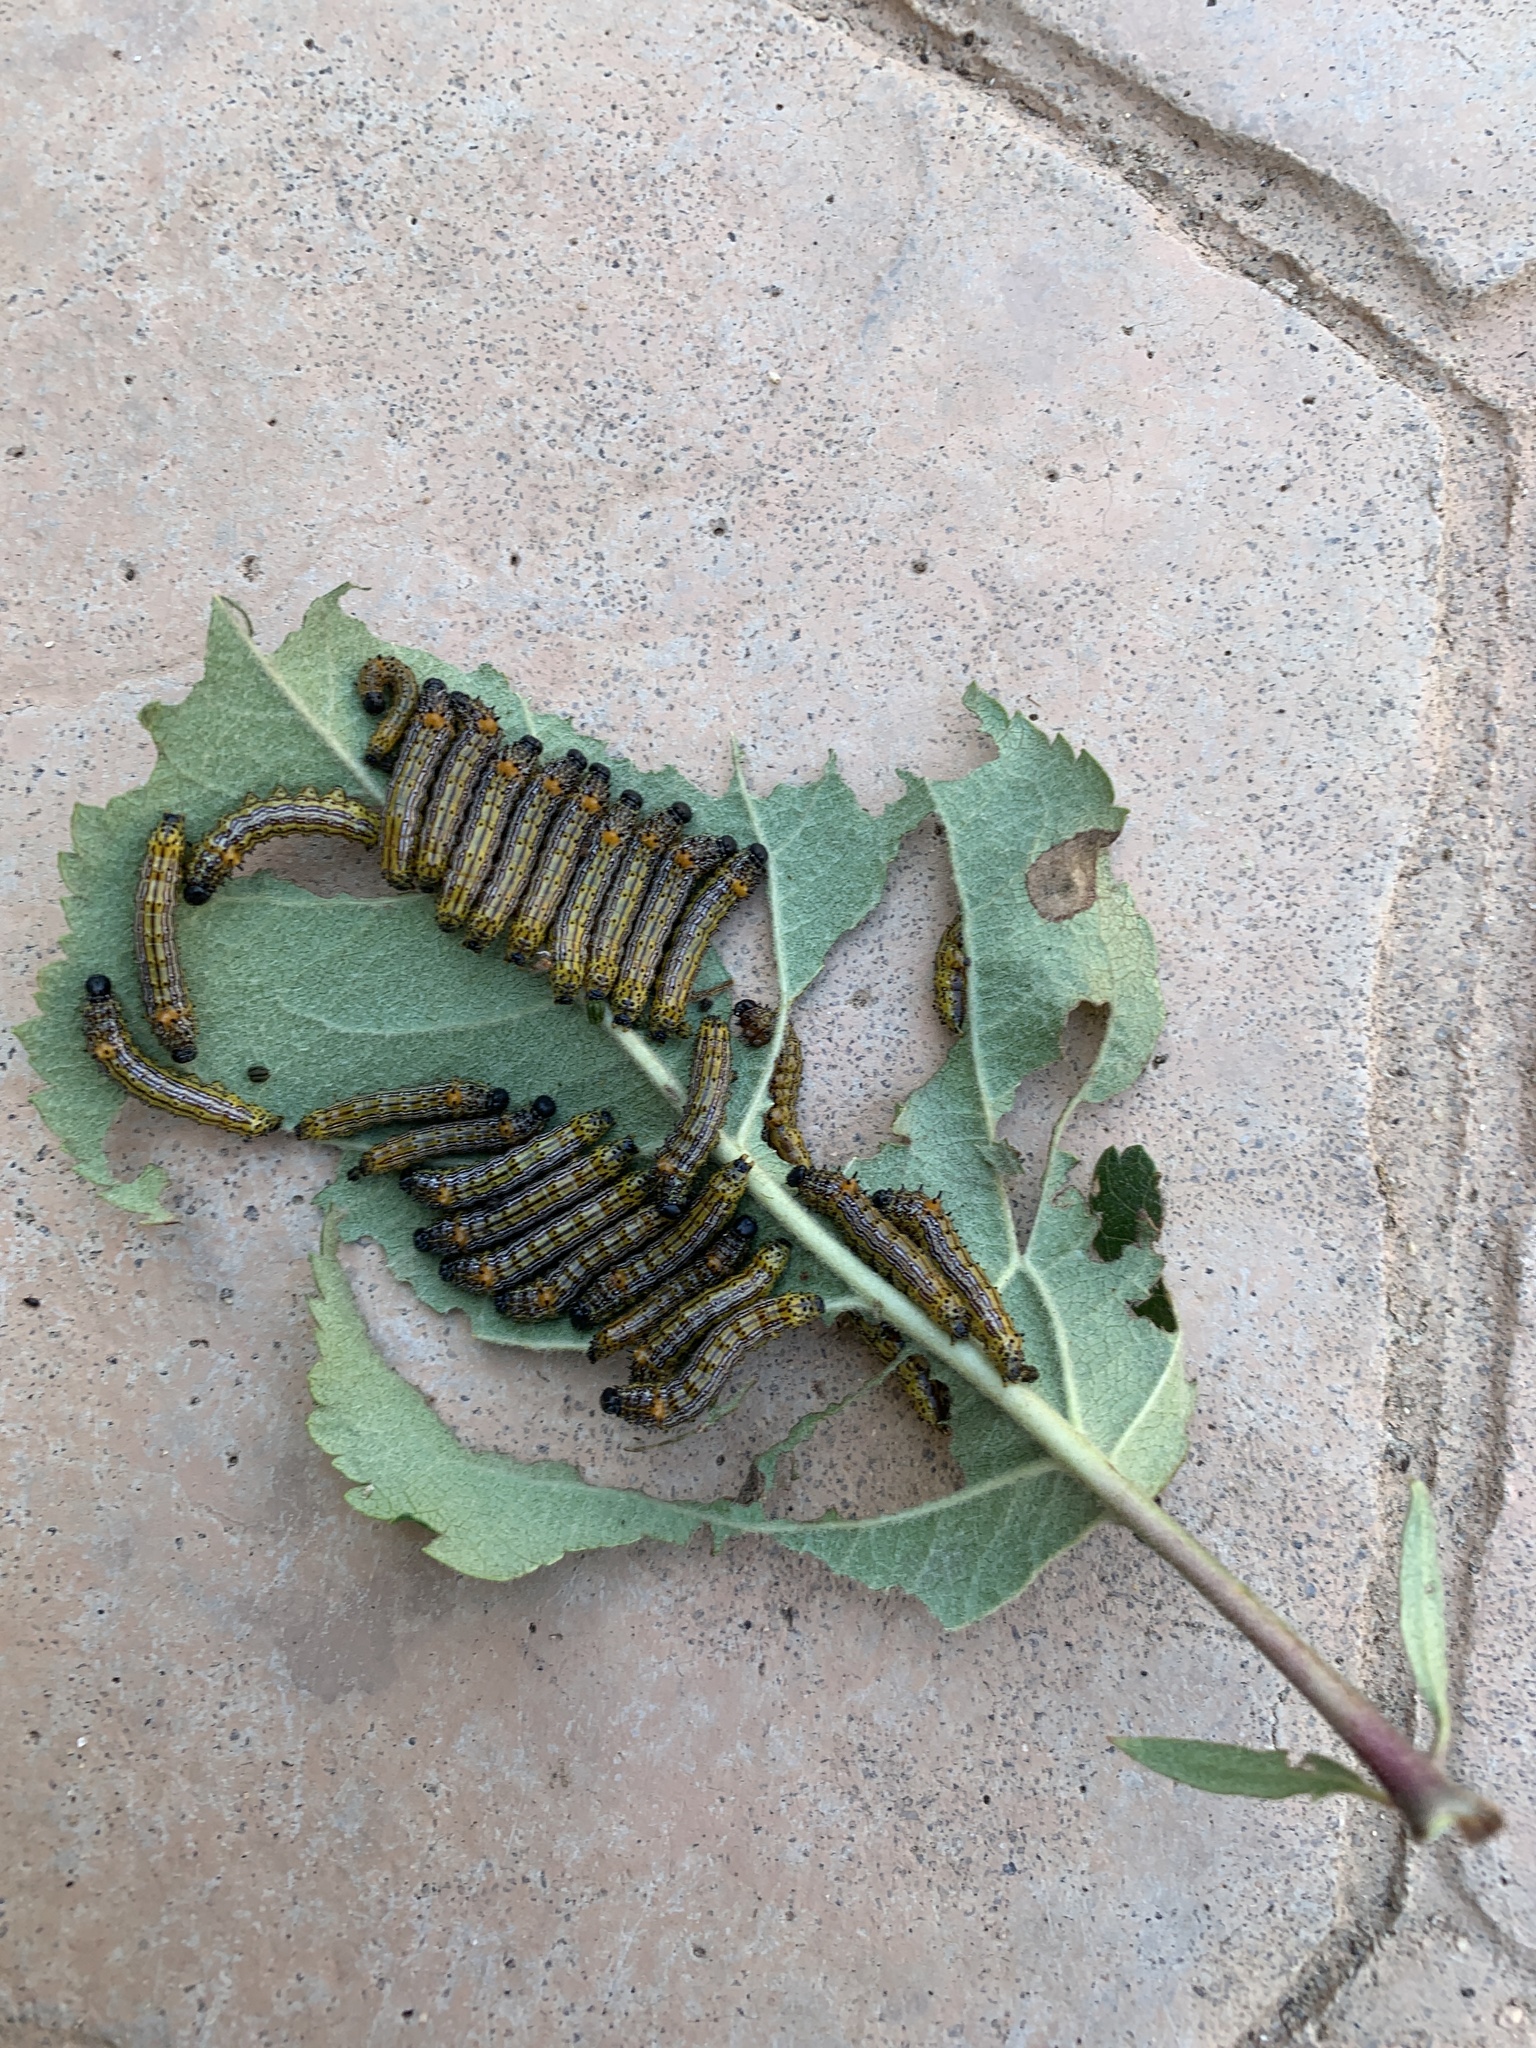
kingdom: Animalia
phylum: Arthropoda
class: Insecta
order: Lepidoptera
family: Notodontidae
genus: Schizura
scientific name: Schizura
